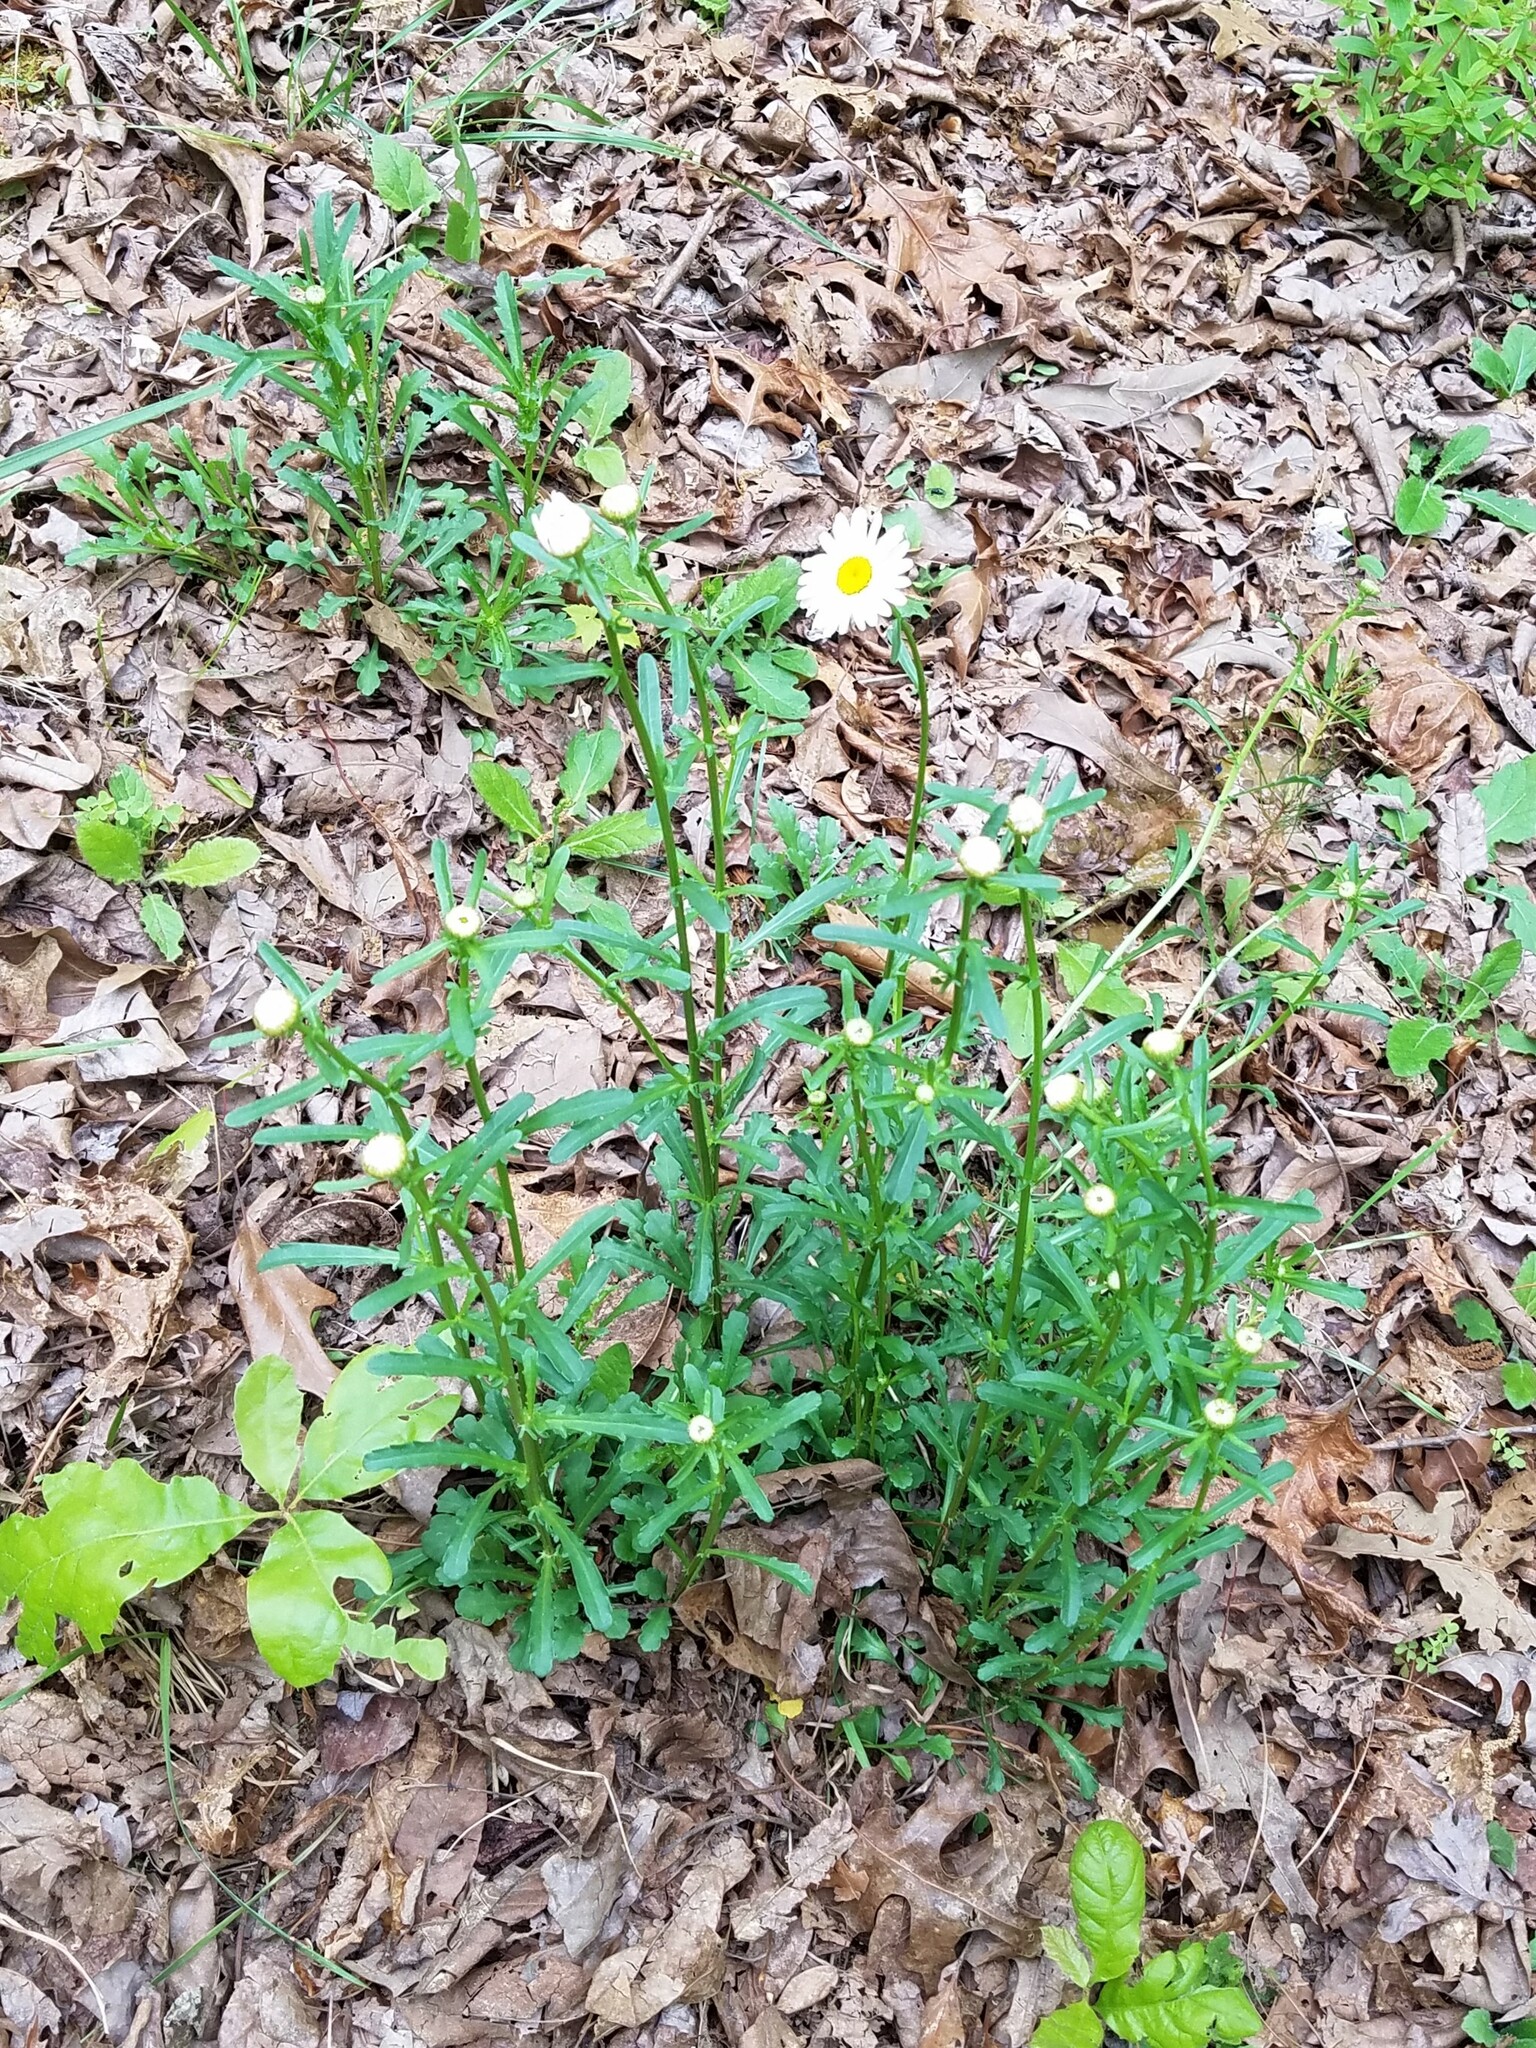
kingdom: Plantae
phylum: Tracheophyta
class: Magnoliopsida
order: Asterales
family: Asteraceae
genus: Leucanthemum
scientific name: Leucanthemum vulgare
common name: Oxeye daisy
